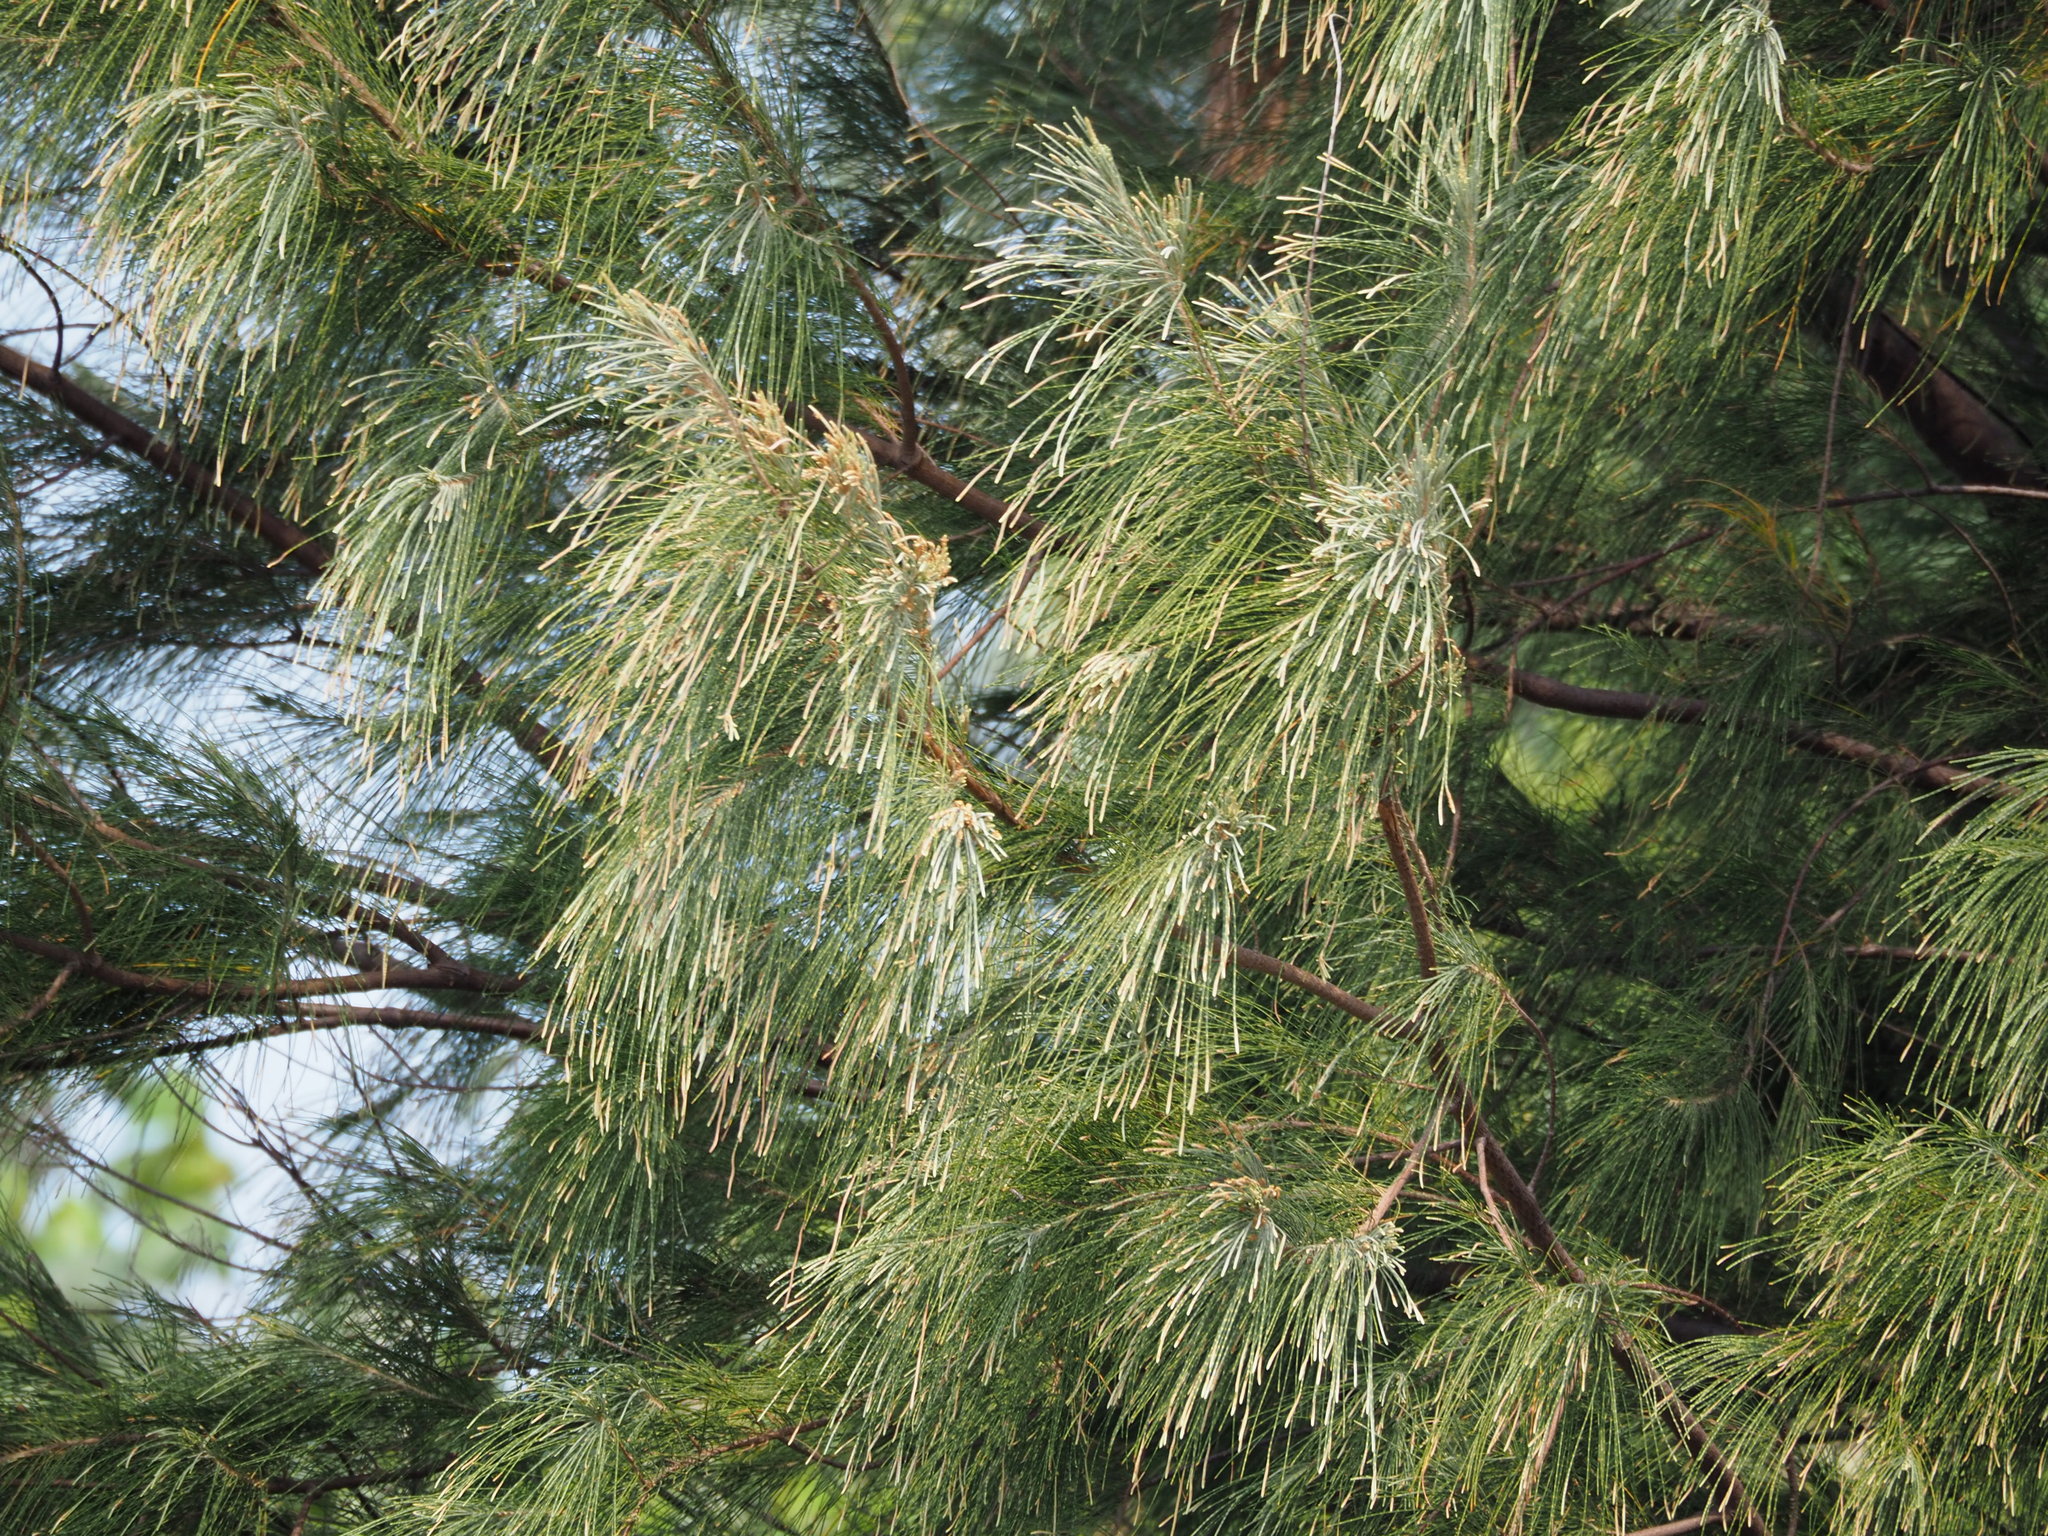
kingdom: Plantae
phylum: Tracheophyta
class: Magnoliopsida
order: Fagales
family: Casuarinaceae
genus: Casuarina
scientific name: Casuarina equisetifolia
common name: Beach sheoak
